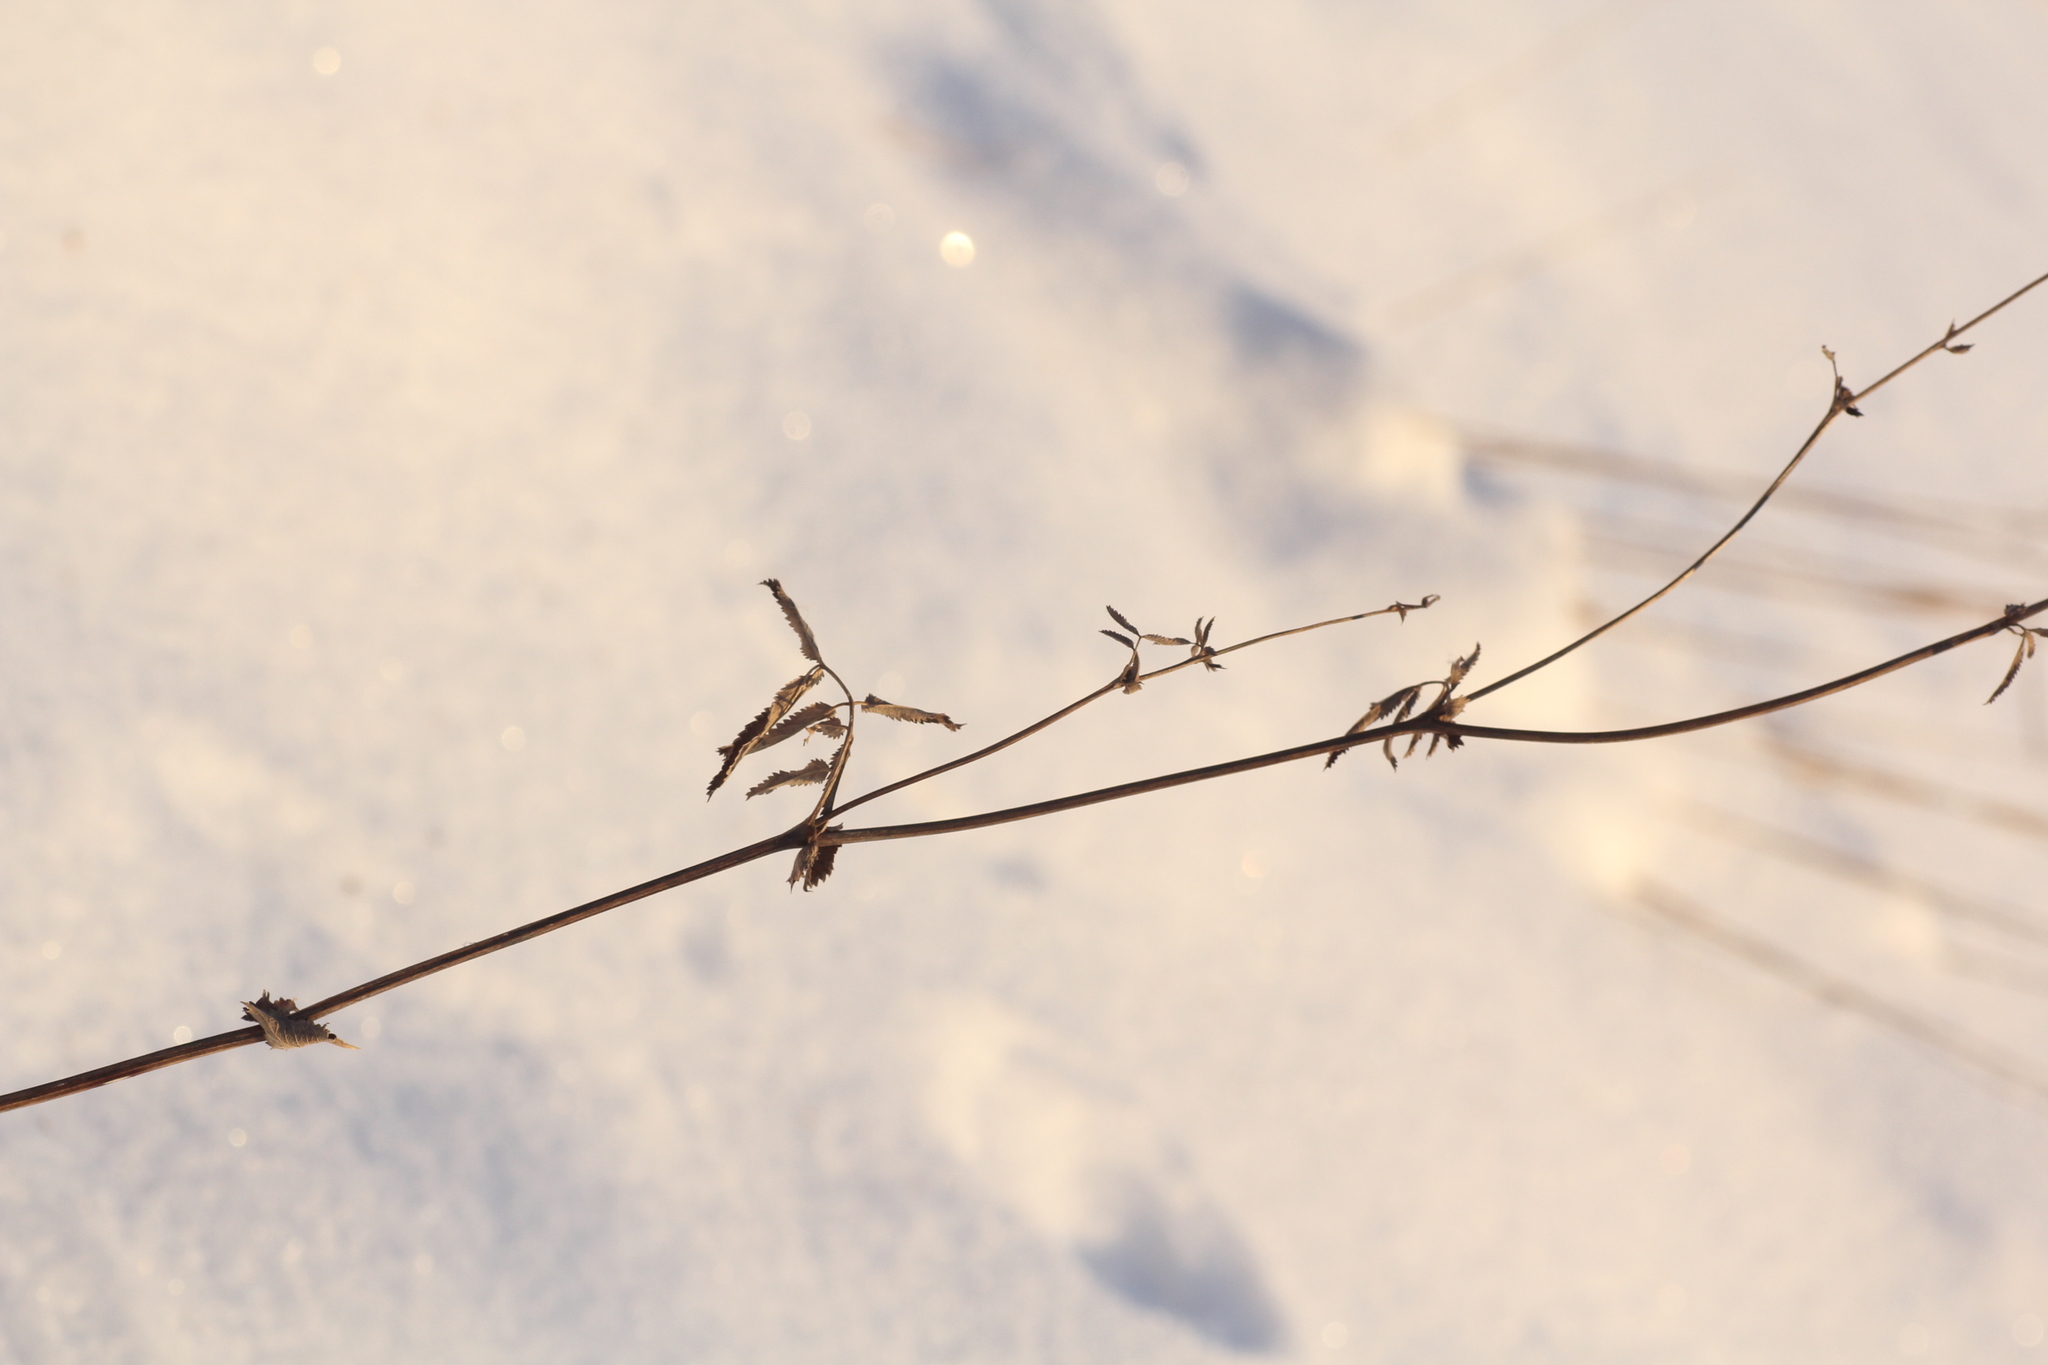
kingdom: Plantae
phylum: Tracheophyta
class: Magnoliopsida
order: Rosales
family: Rosaceae
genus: Sanguisorba
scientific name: Sanguisorba officinalis
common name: Great burnet
